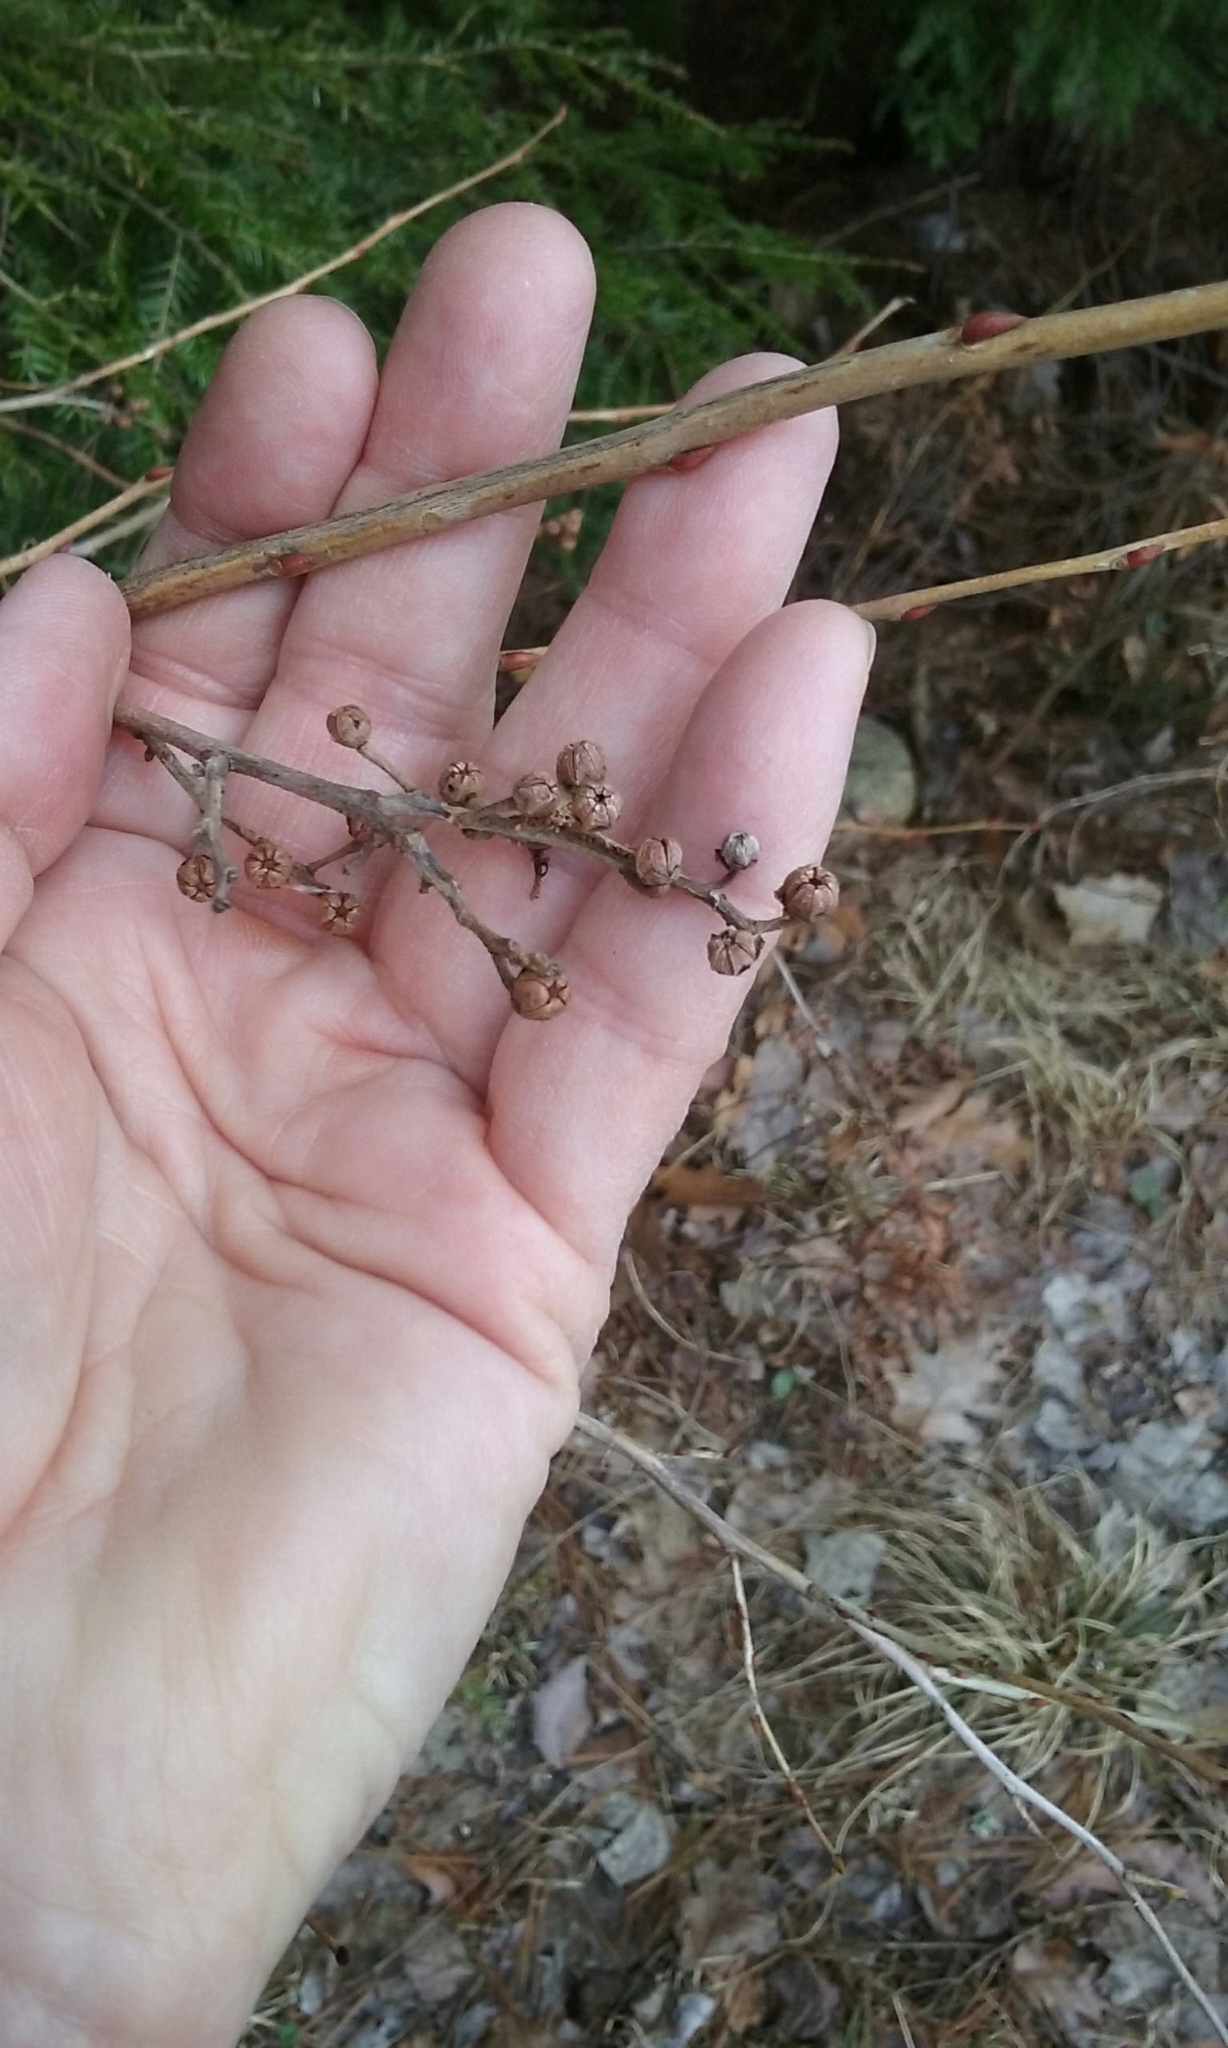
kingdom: Plantae
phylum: Tracheophyta
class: Magnoliopsida
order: Ericales
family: Ericaceae
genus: Lyonia
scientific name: Lyonia ligustrina
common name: Maleberry
